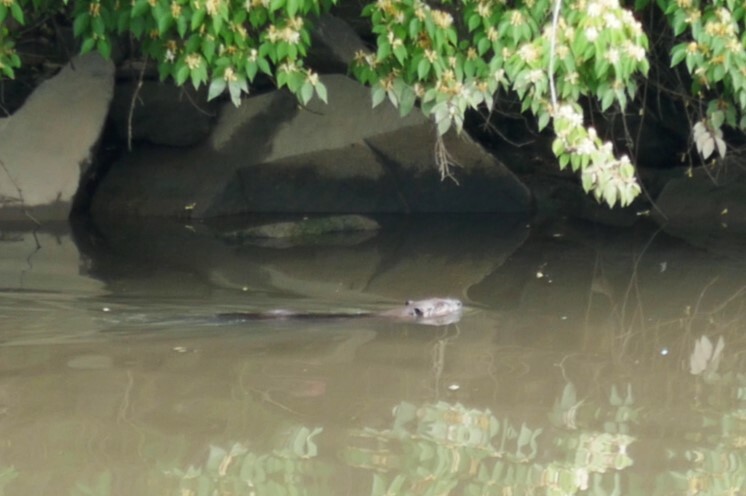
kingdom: Animalia
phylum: Chordata
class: Mammalia
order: Rodentia
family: Castoridae
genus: Castor
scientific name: Castor canadensis
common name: American beaver
